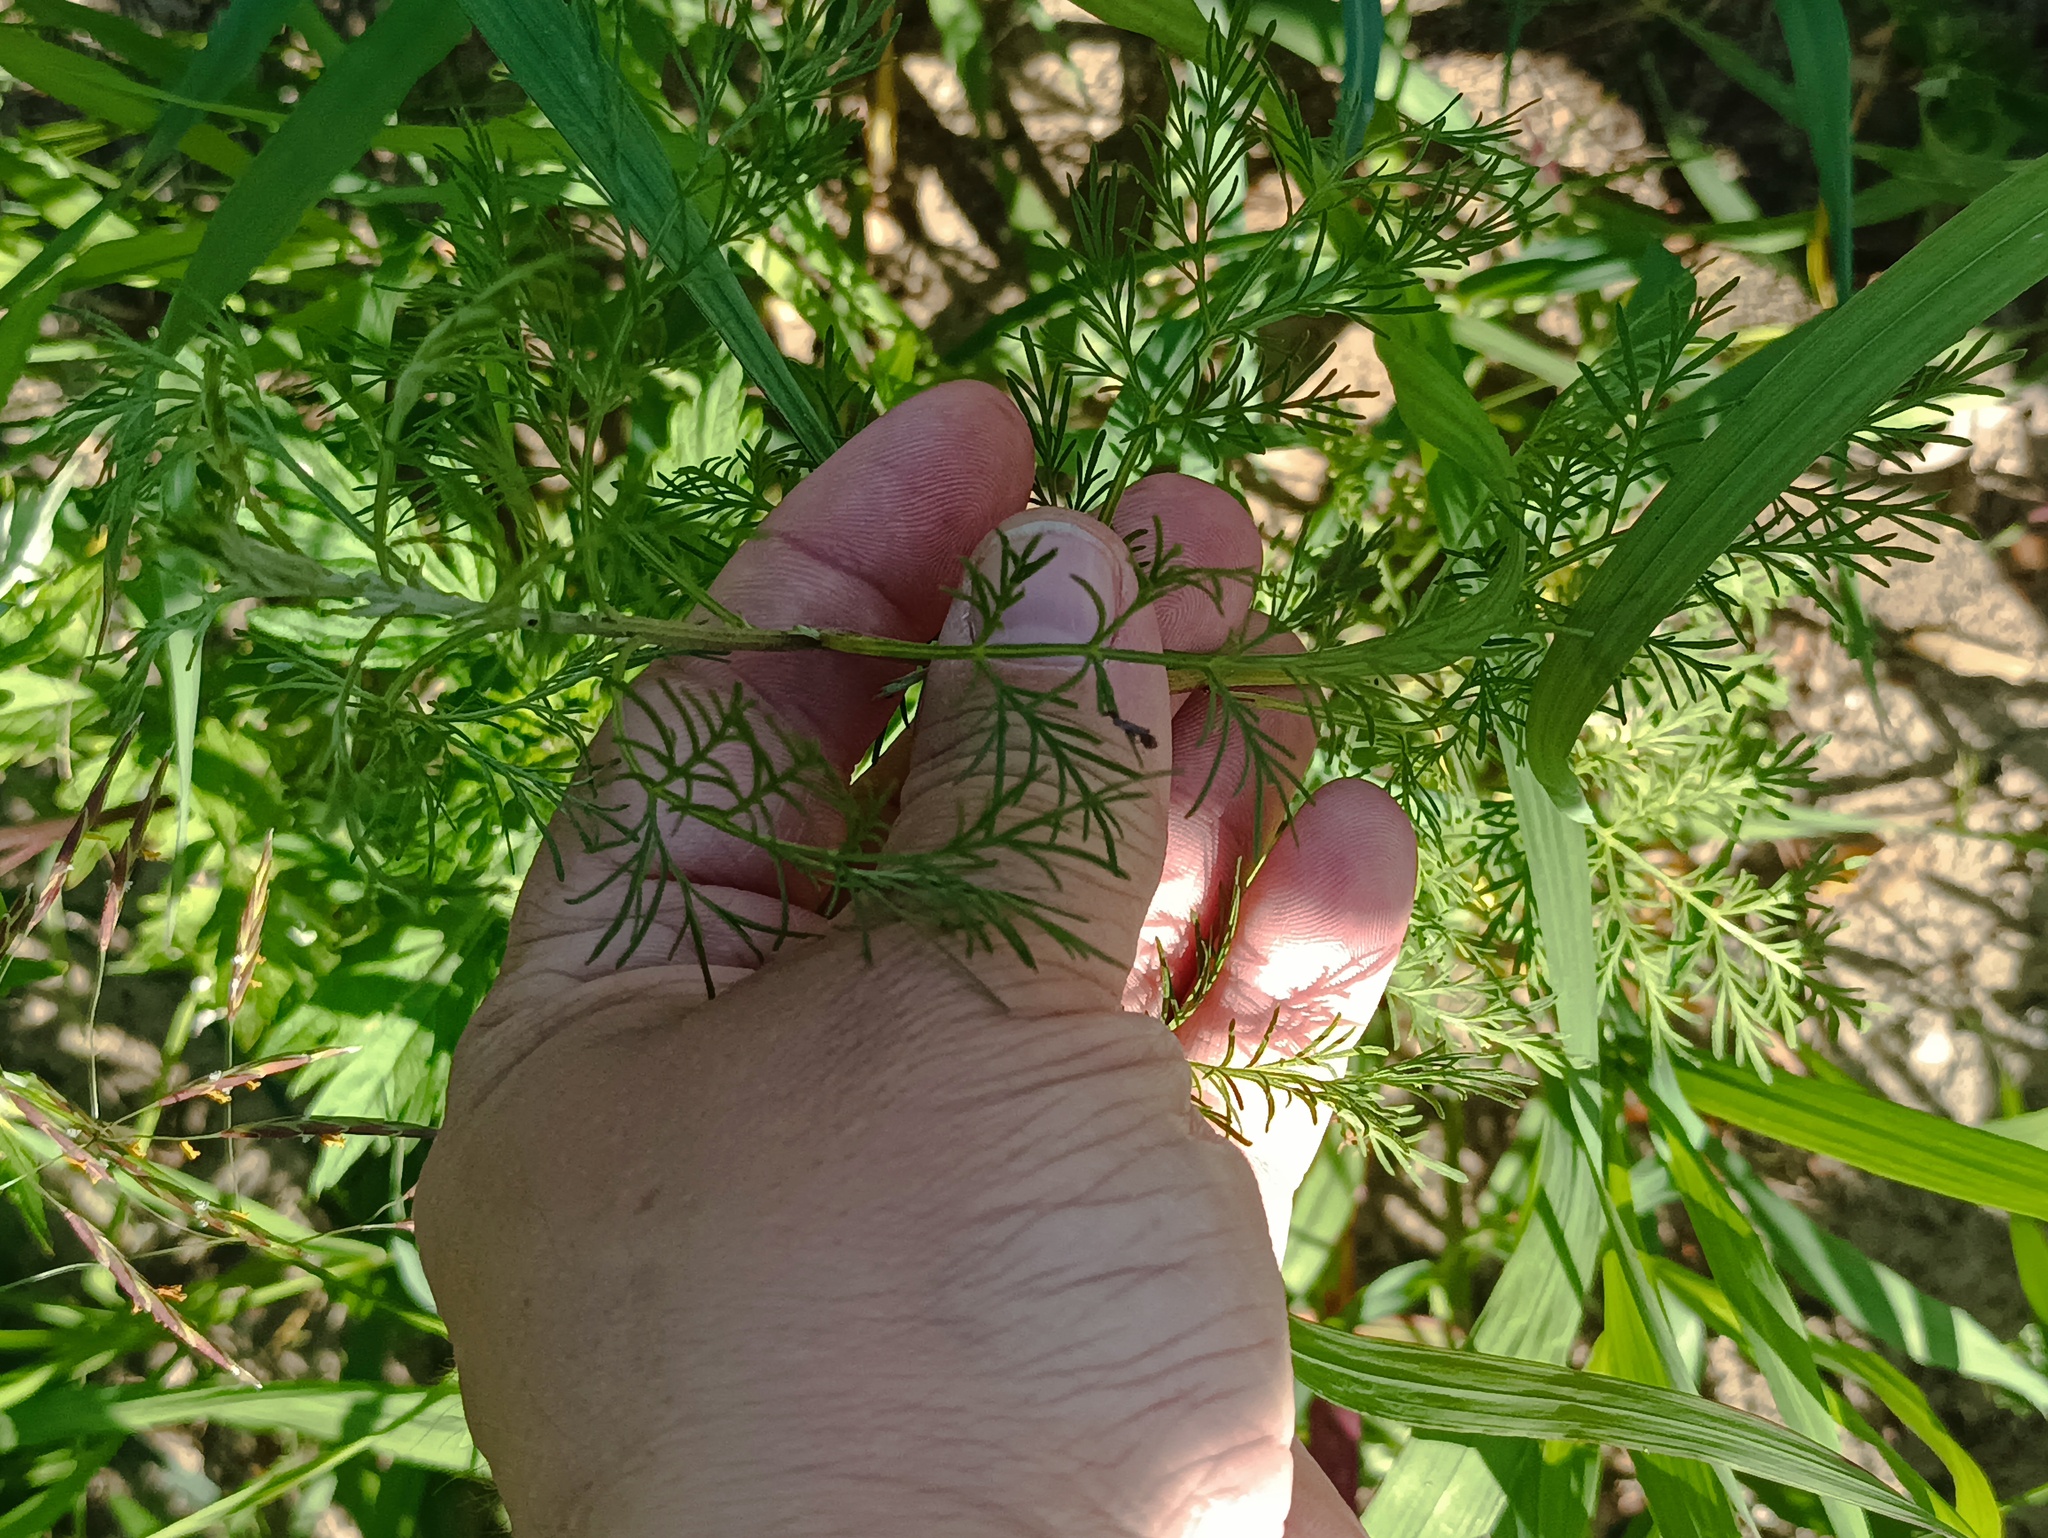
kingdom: Plantae
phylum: Tracheophyta
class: Magnoliopsida
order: Asterales
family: Asteraceae
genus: Artemisia
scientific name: Artemisia abrotanum
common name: Southernwood
